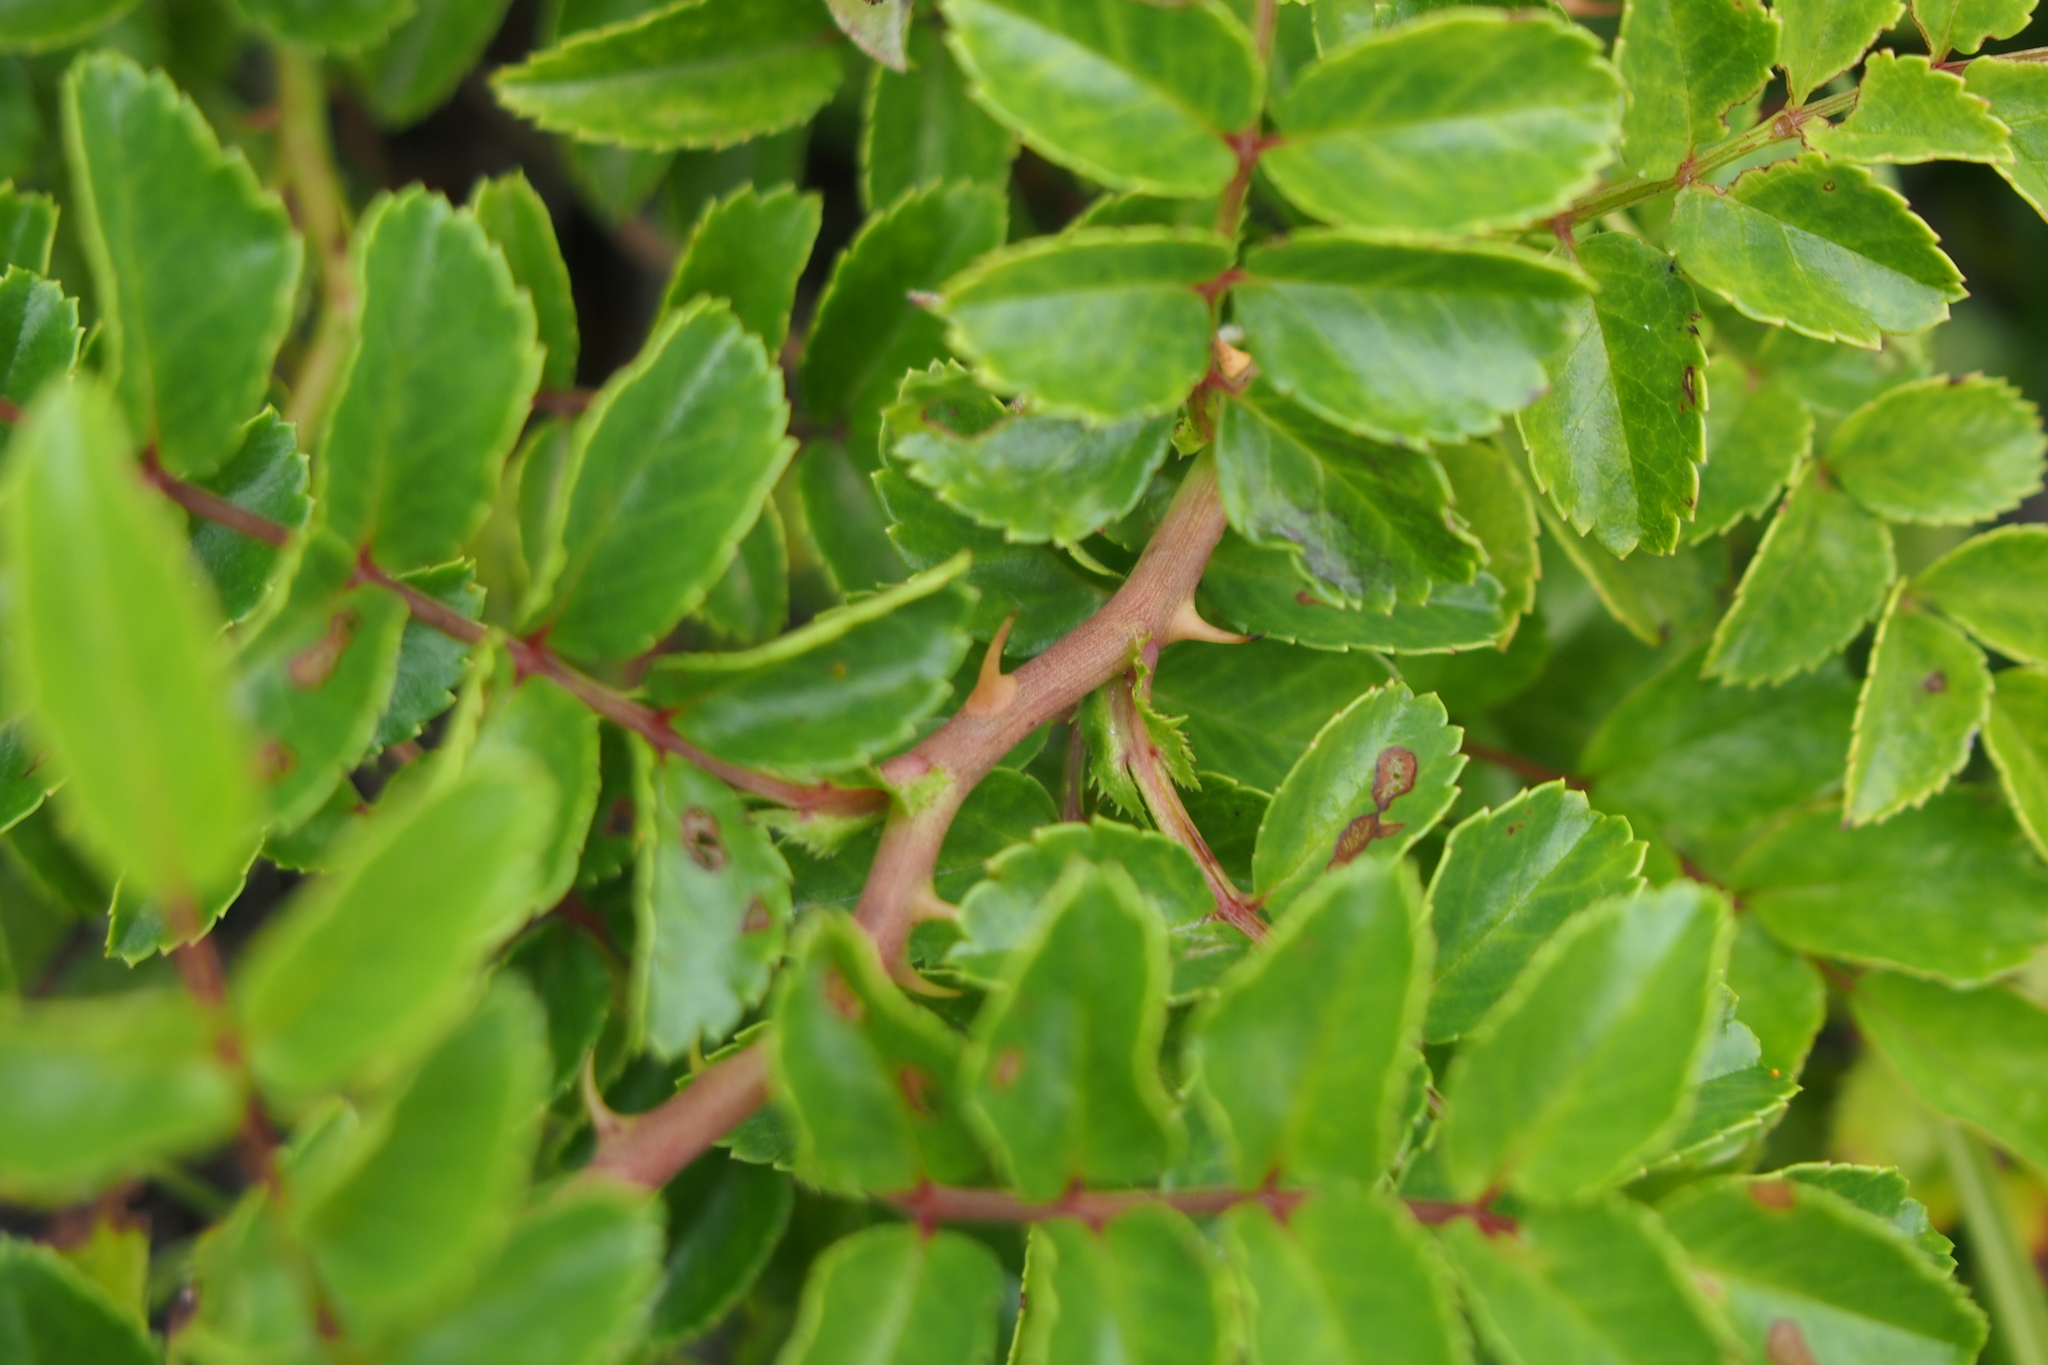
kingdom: Plantae
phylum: Tracheophyta
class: Magnoliopsida
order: Rosales
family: Rosaceae
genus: Rosa
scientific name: Rosa lucieae
